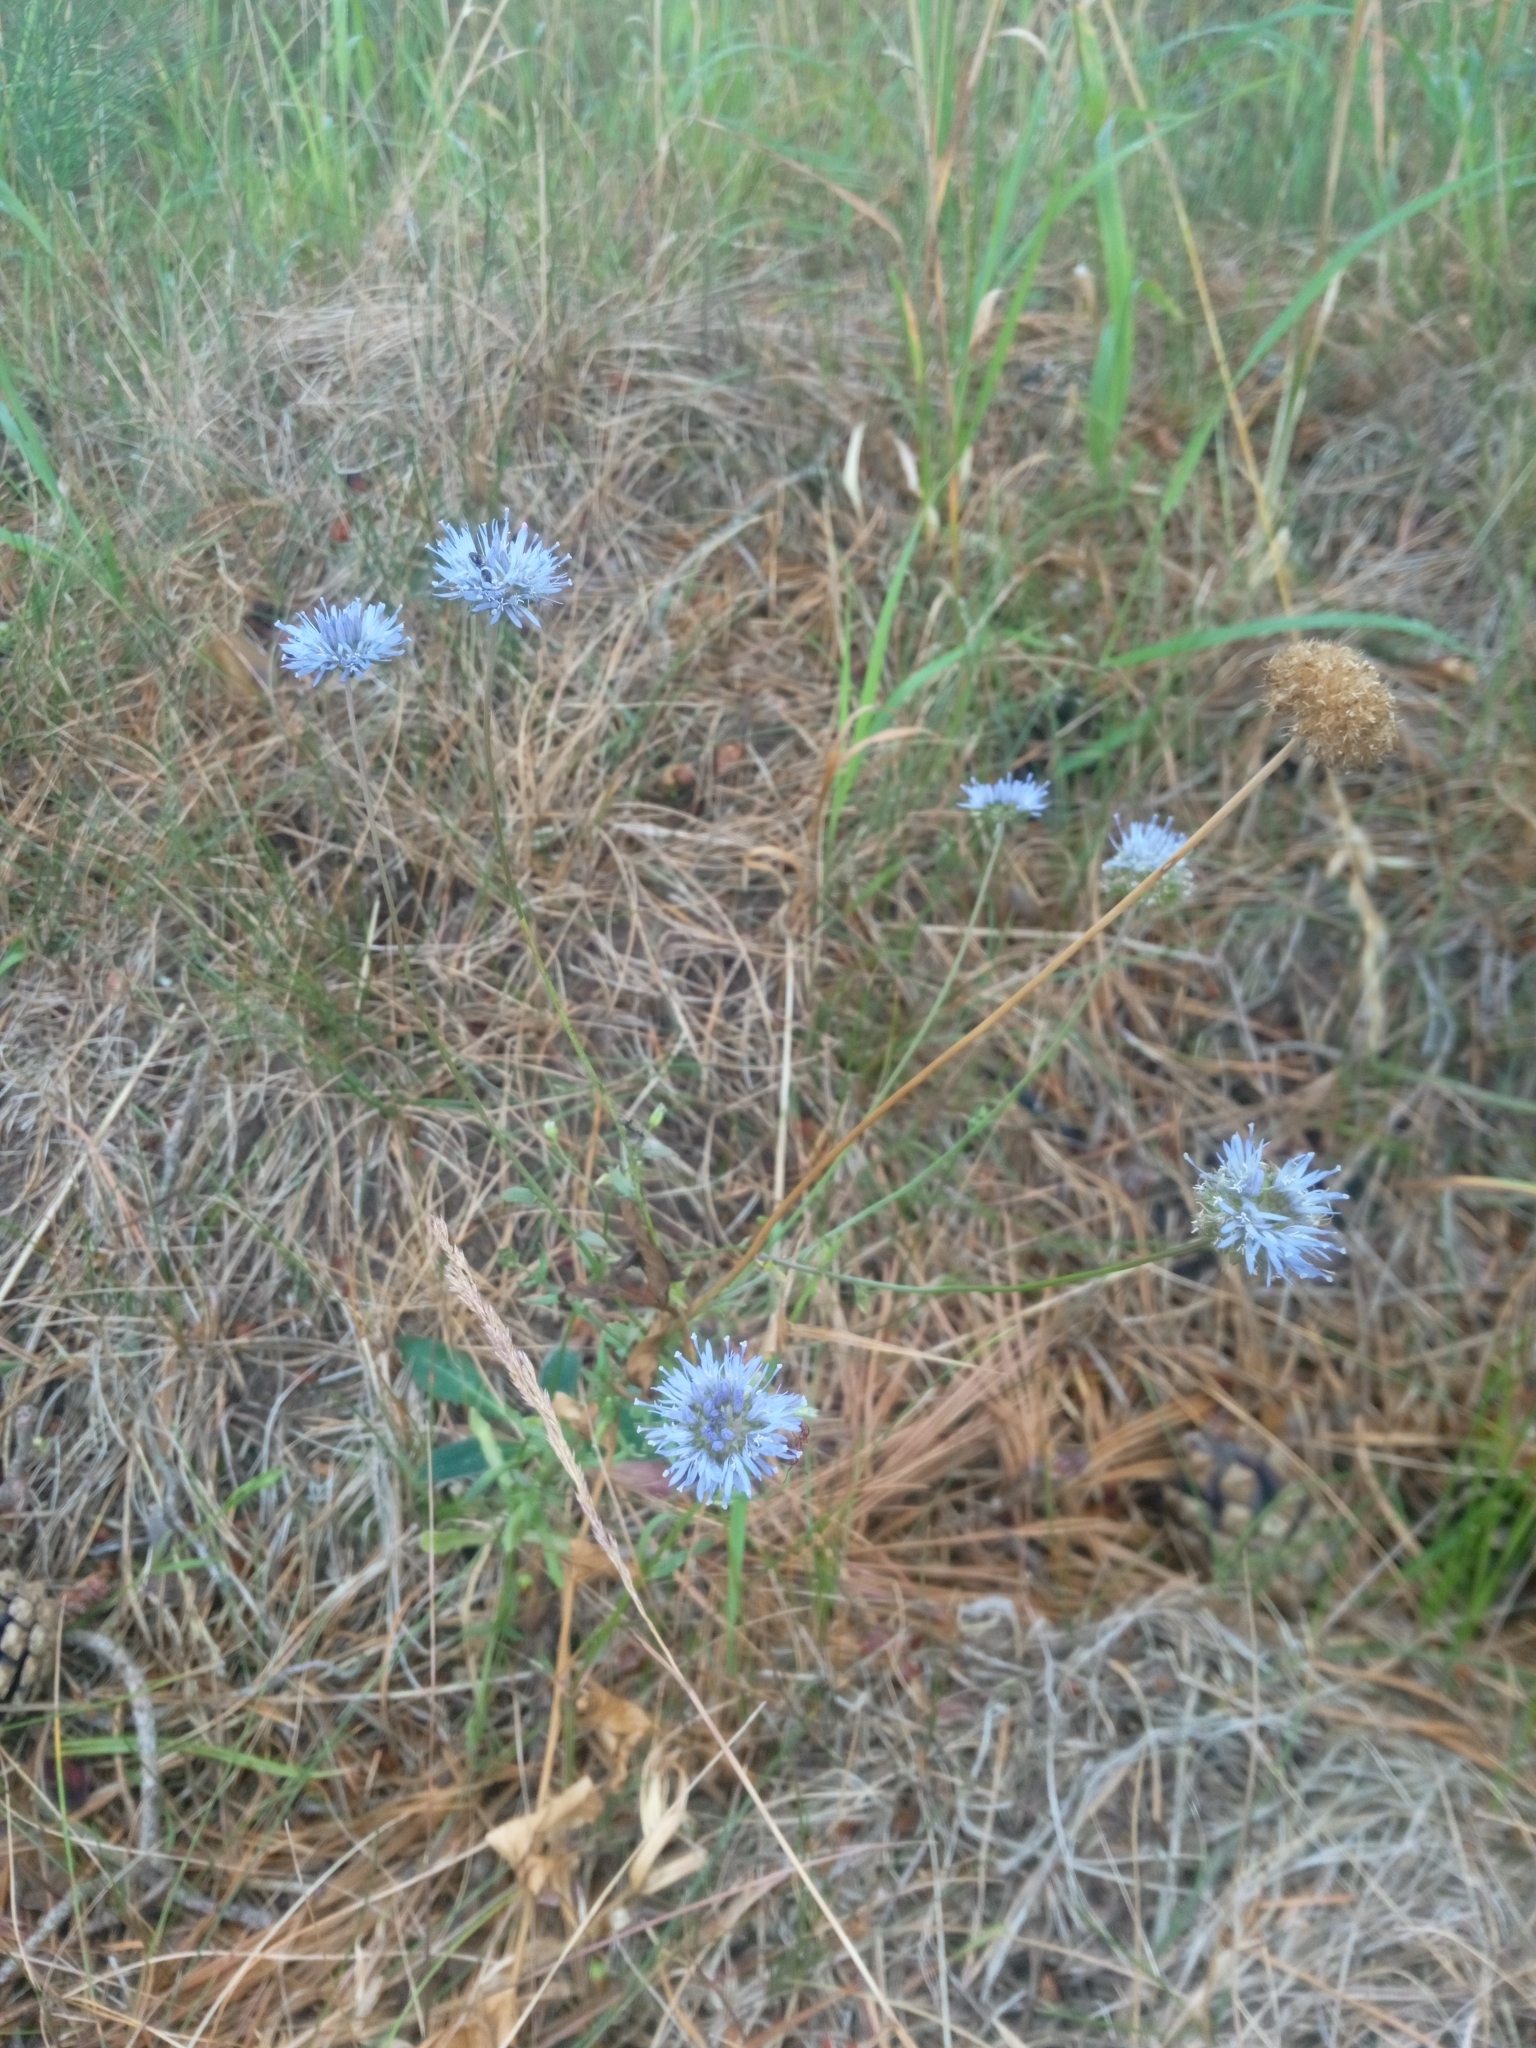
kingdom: Plantae
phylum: Tracheophyta
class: Magnoliopsida
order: Asterales
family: Campanulaceae
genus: Jasione
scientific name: Jasione montana
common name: Sheep's-bit
